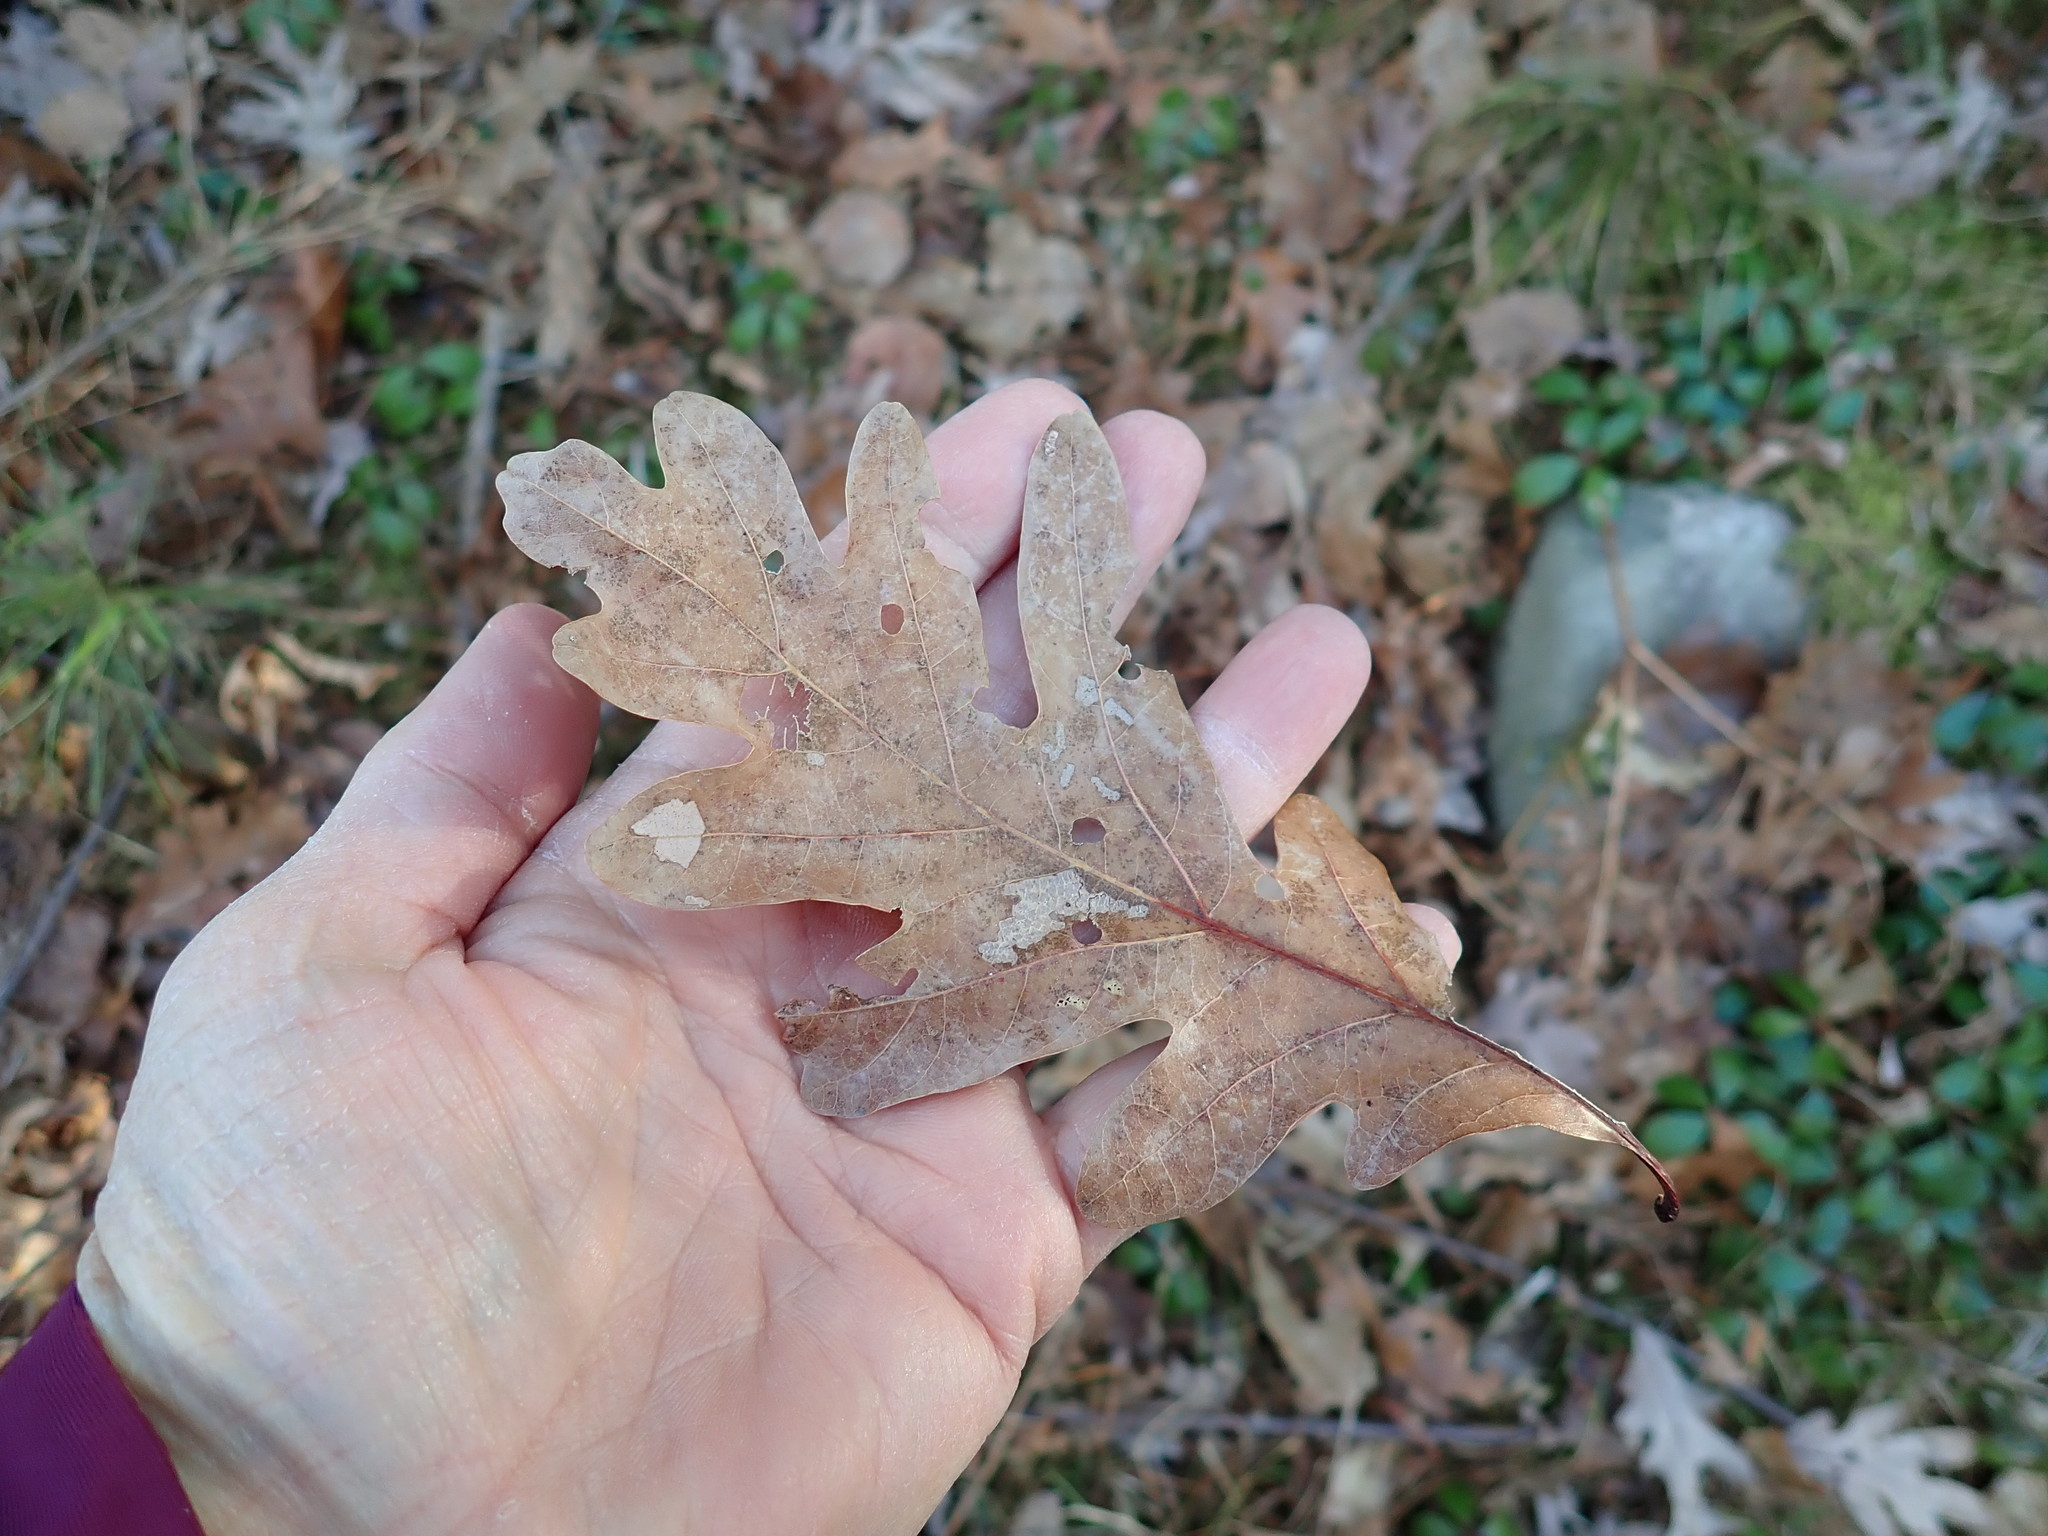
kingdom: Plantae
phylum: Tracheophyta
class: Magnoliopsida
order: Fagales
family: Fagaceae
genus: Quercus
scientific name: Quercus alba
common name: White oak
